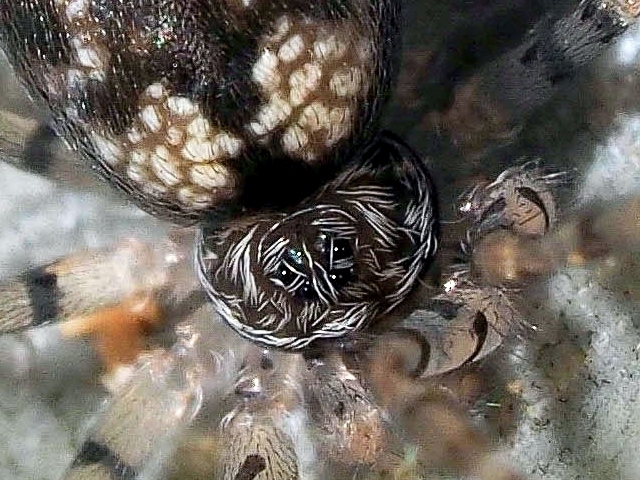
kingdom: Animalia
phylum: Arthropoda
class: Arachnida
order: Araneae
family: Oecobiidae
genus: Oecobius
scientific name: Oecobius maculatus
